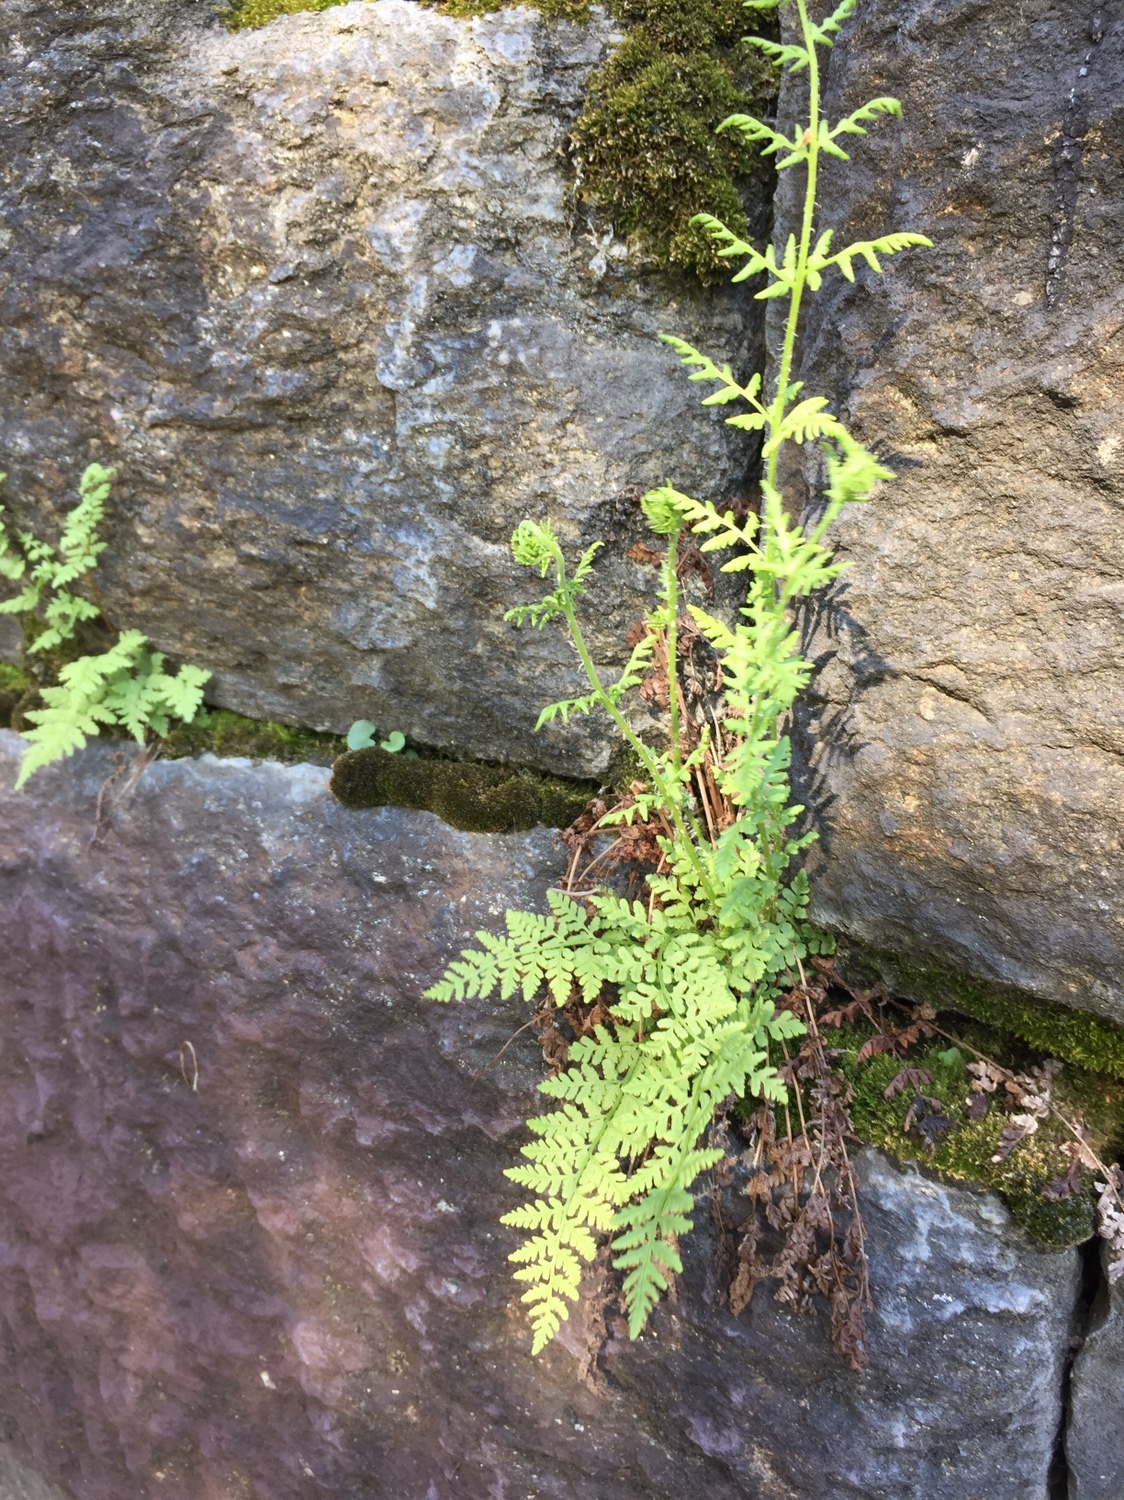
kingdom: Plantae
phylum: Tracheophyta
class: Polypodiopsida
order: Polypodiales
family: Woodsiaceae
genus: Physematium
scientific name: Physematium obtusum
